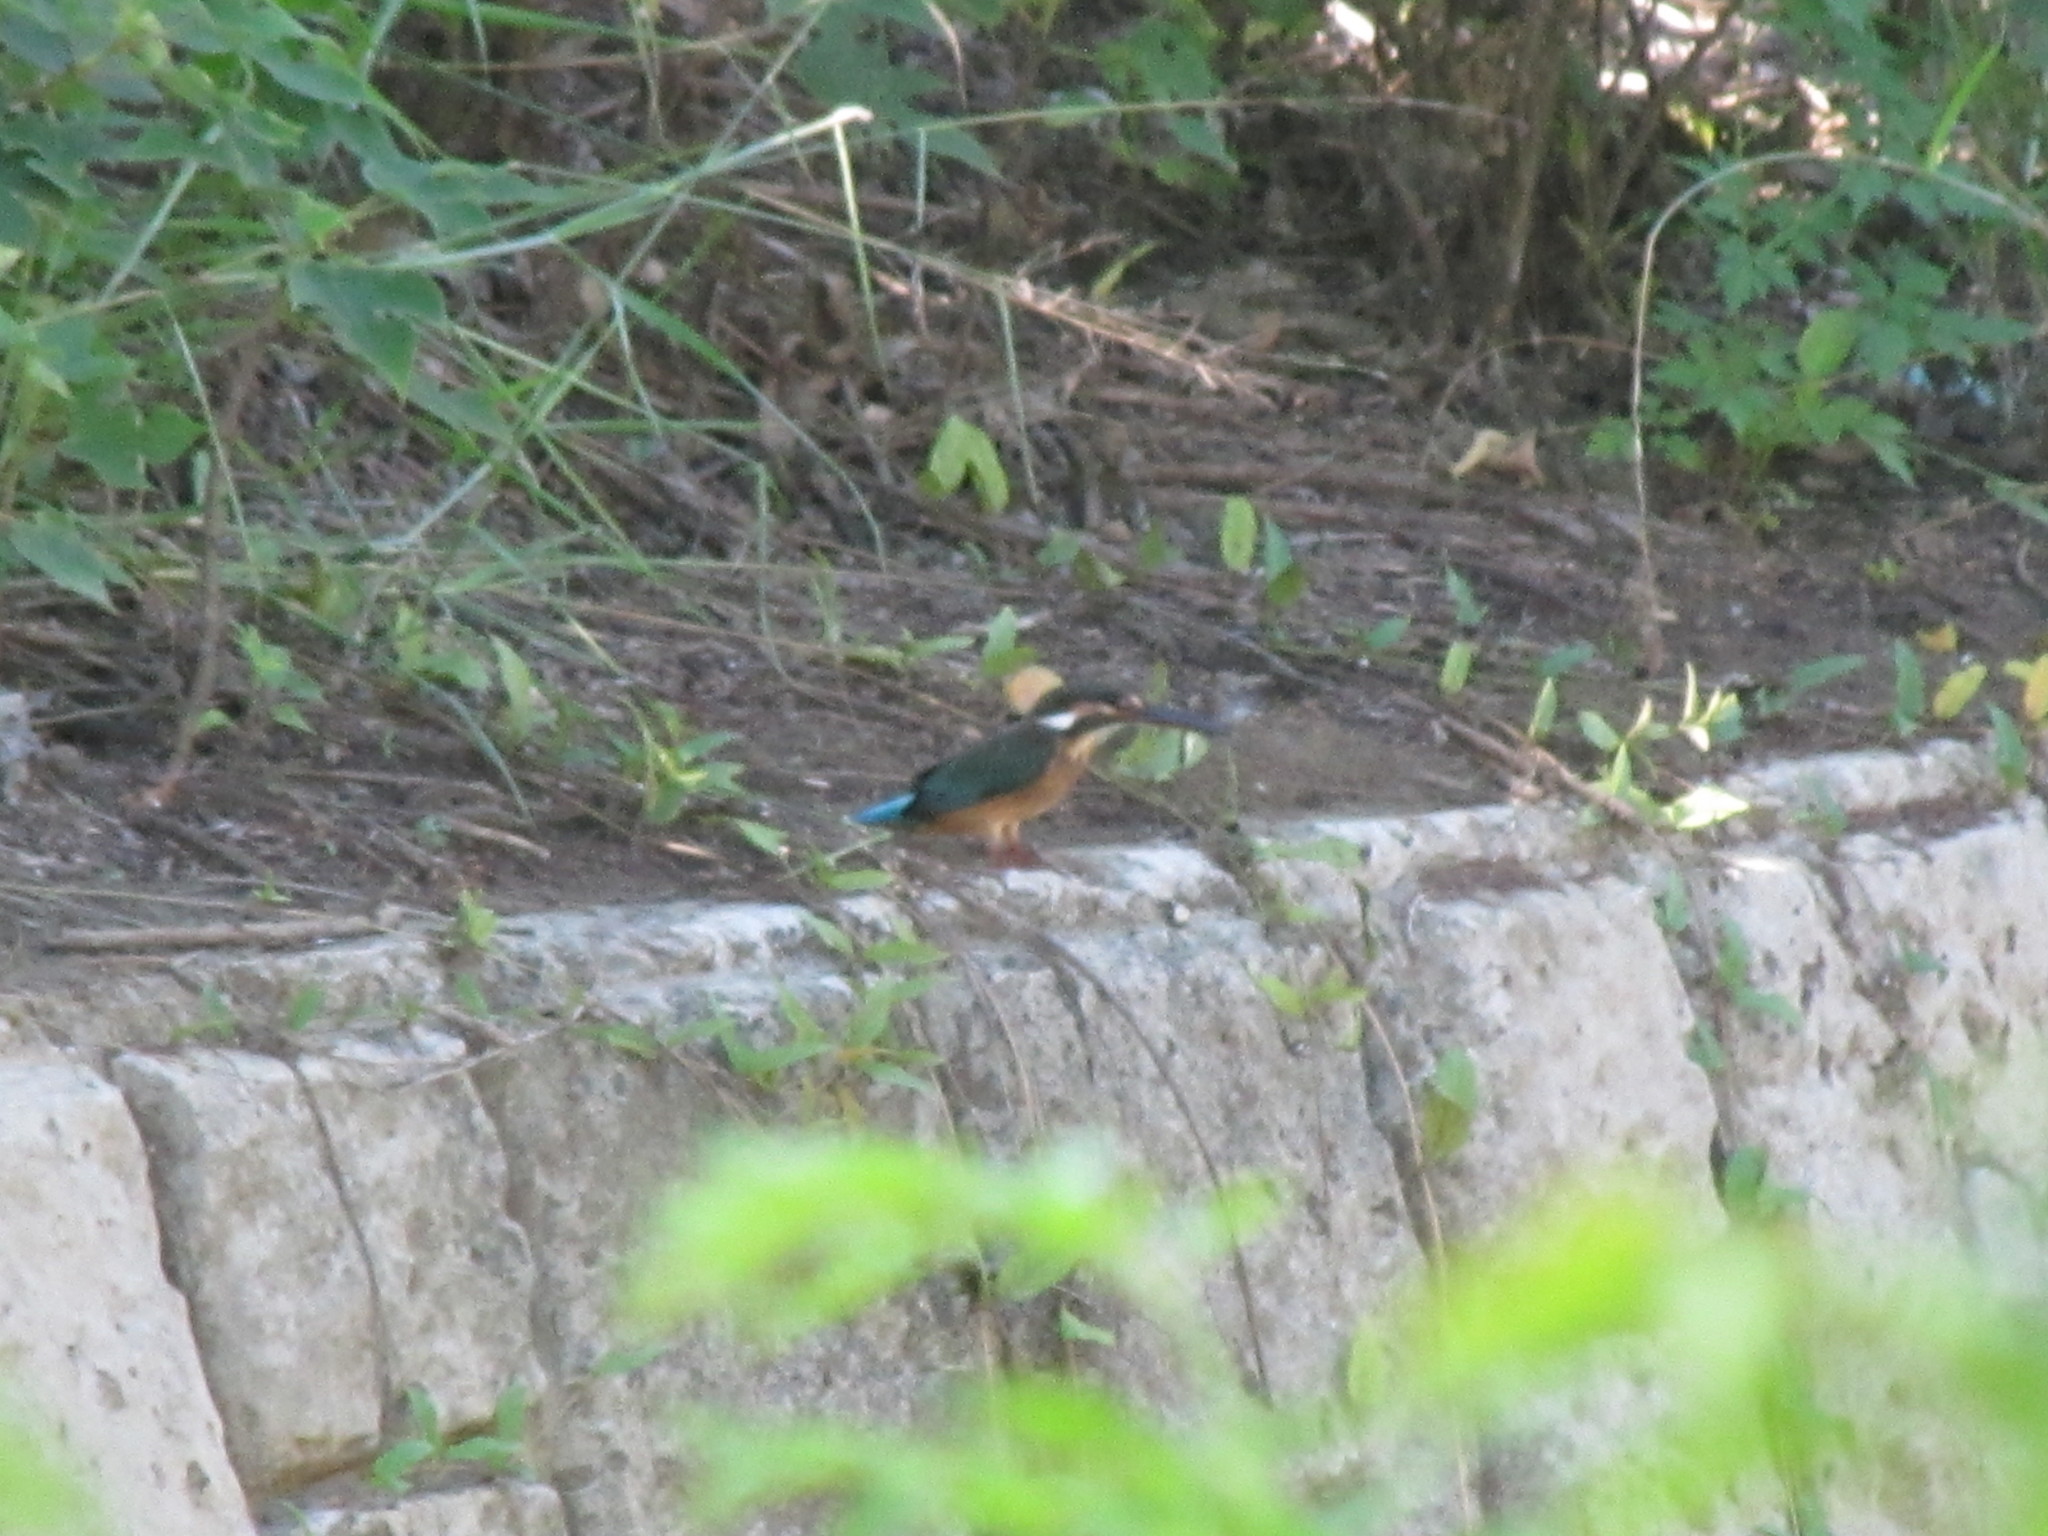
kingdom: Animalia
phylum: Chordata
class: Aves
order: Coraciiformes
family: Alcedinidae
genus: Alcedo
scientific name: Alcedo atthis
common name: Common kingfisher
